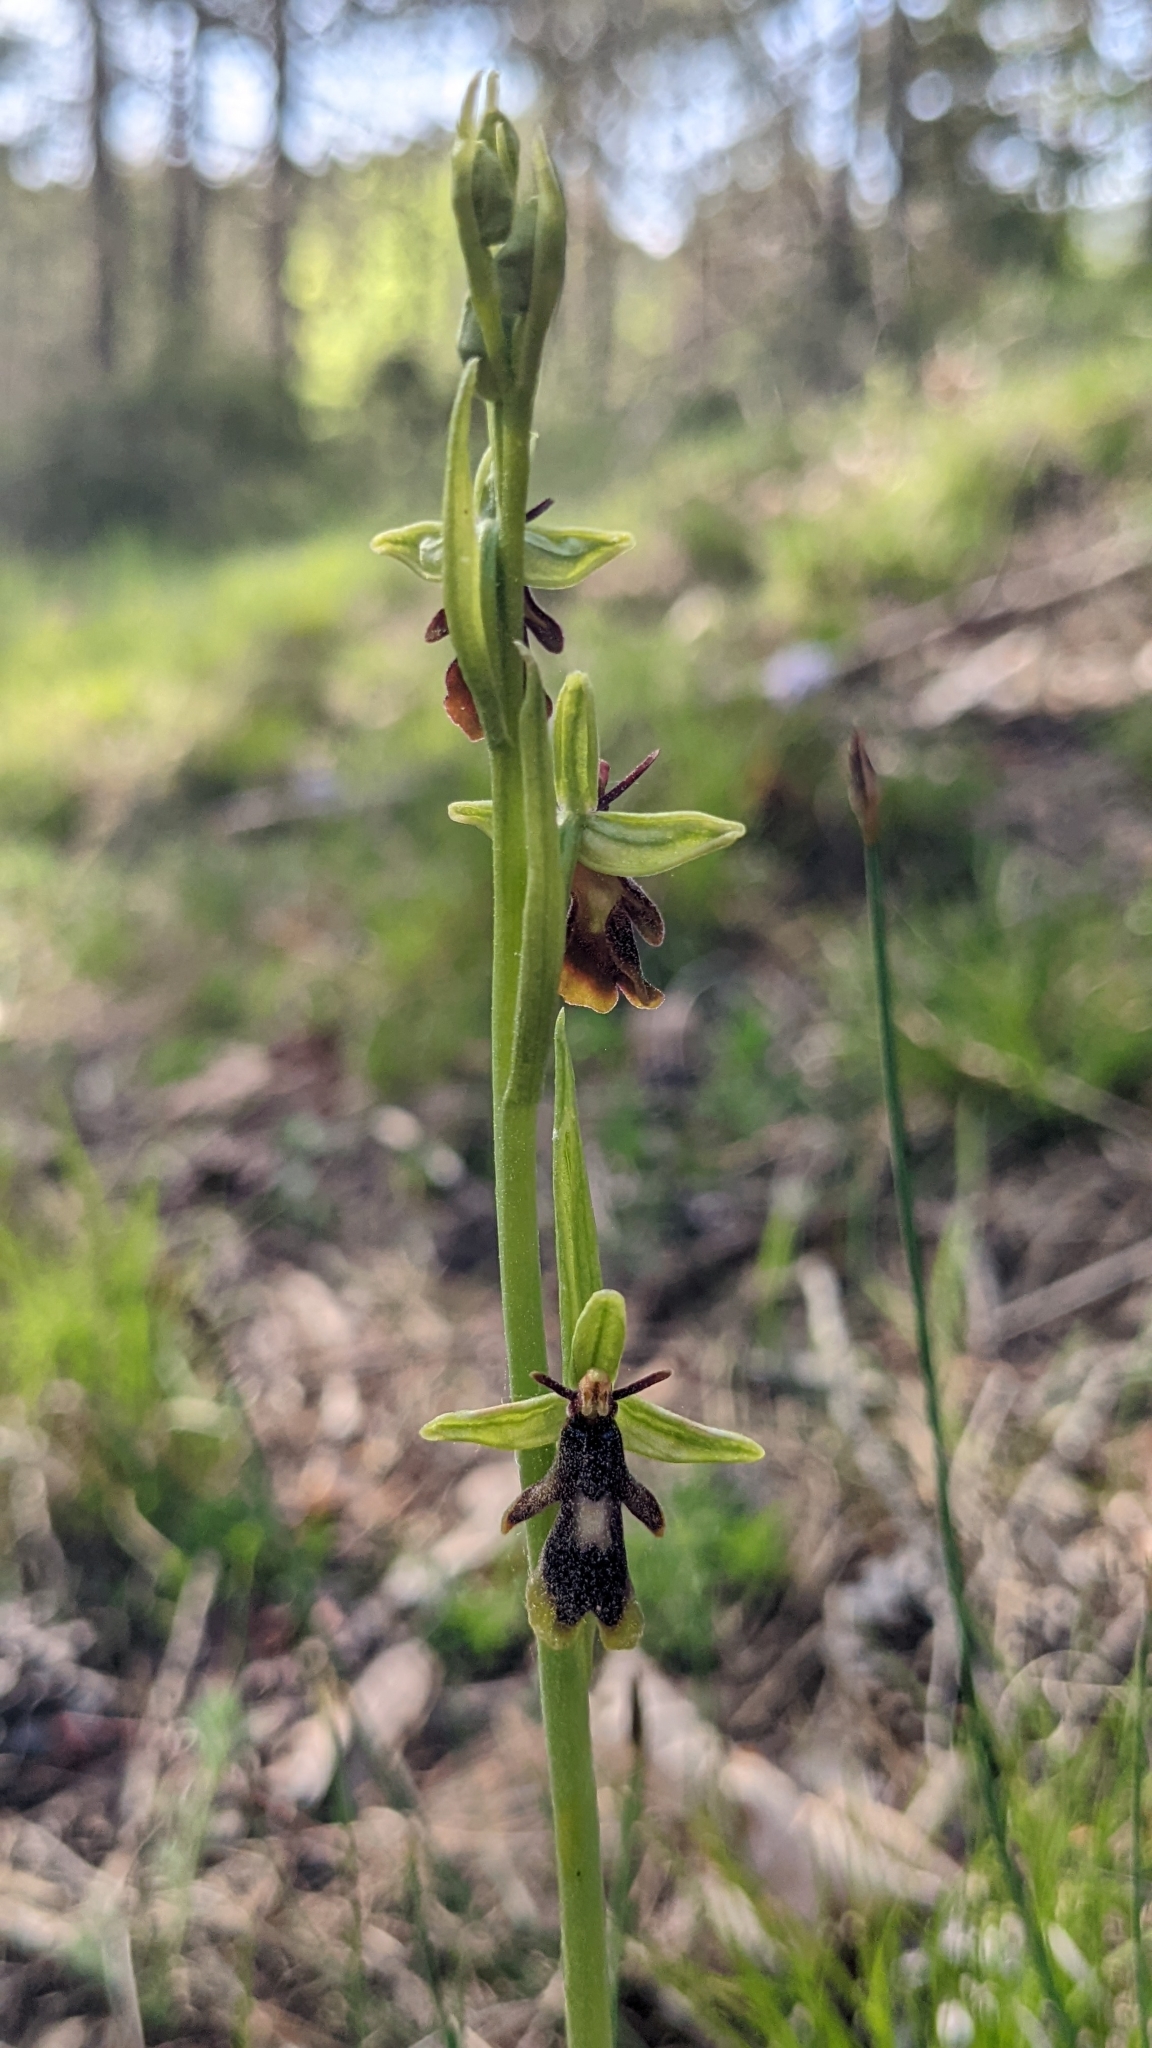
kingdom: Plantae
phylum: Tracheophyta
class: Liliopsida
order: Asparagales
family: Orchidaceae
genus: Ophrys
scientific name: Ophrys insectifera
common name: Fly orchid
